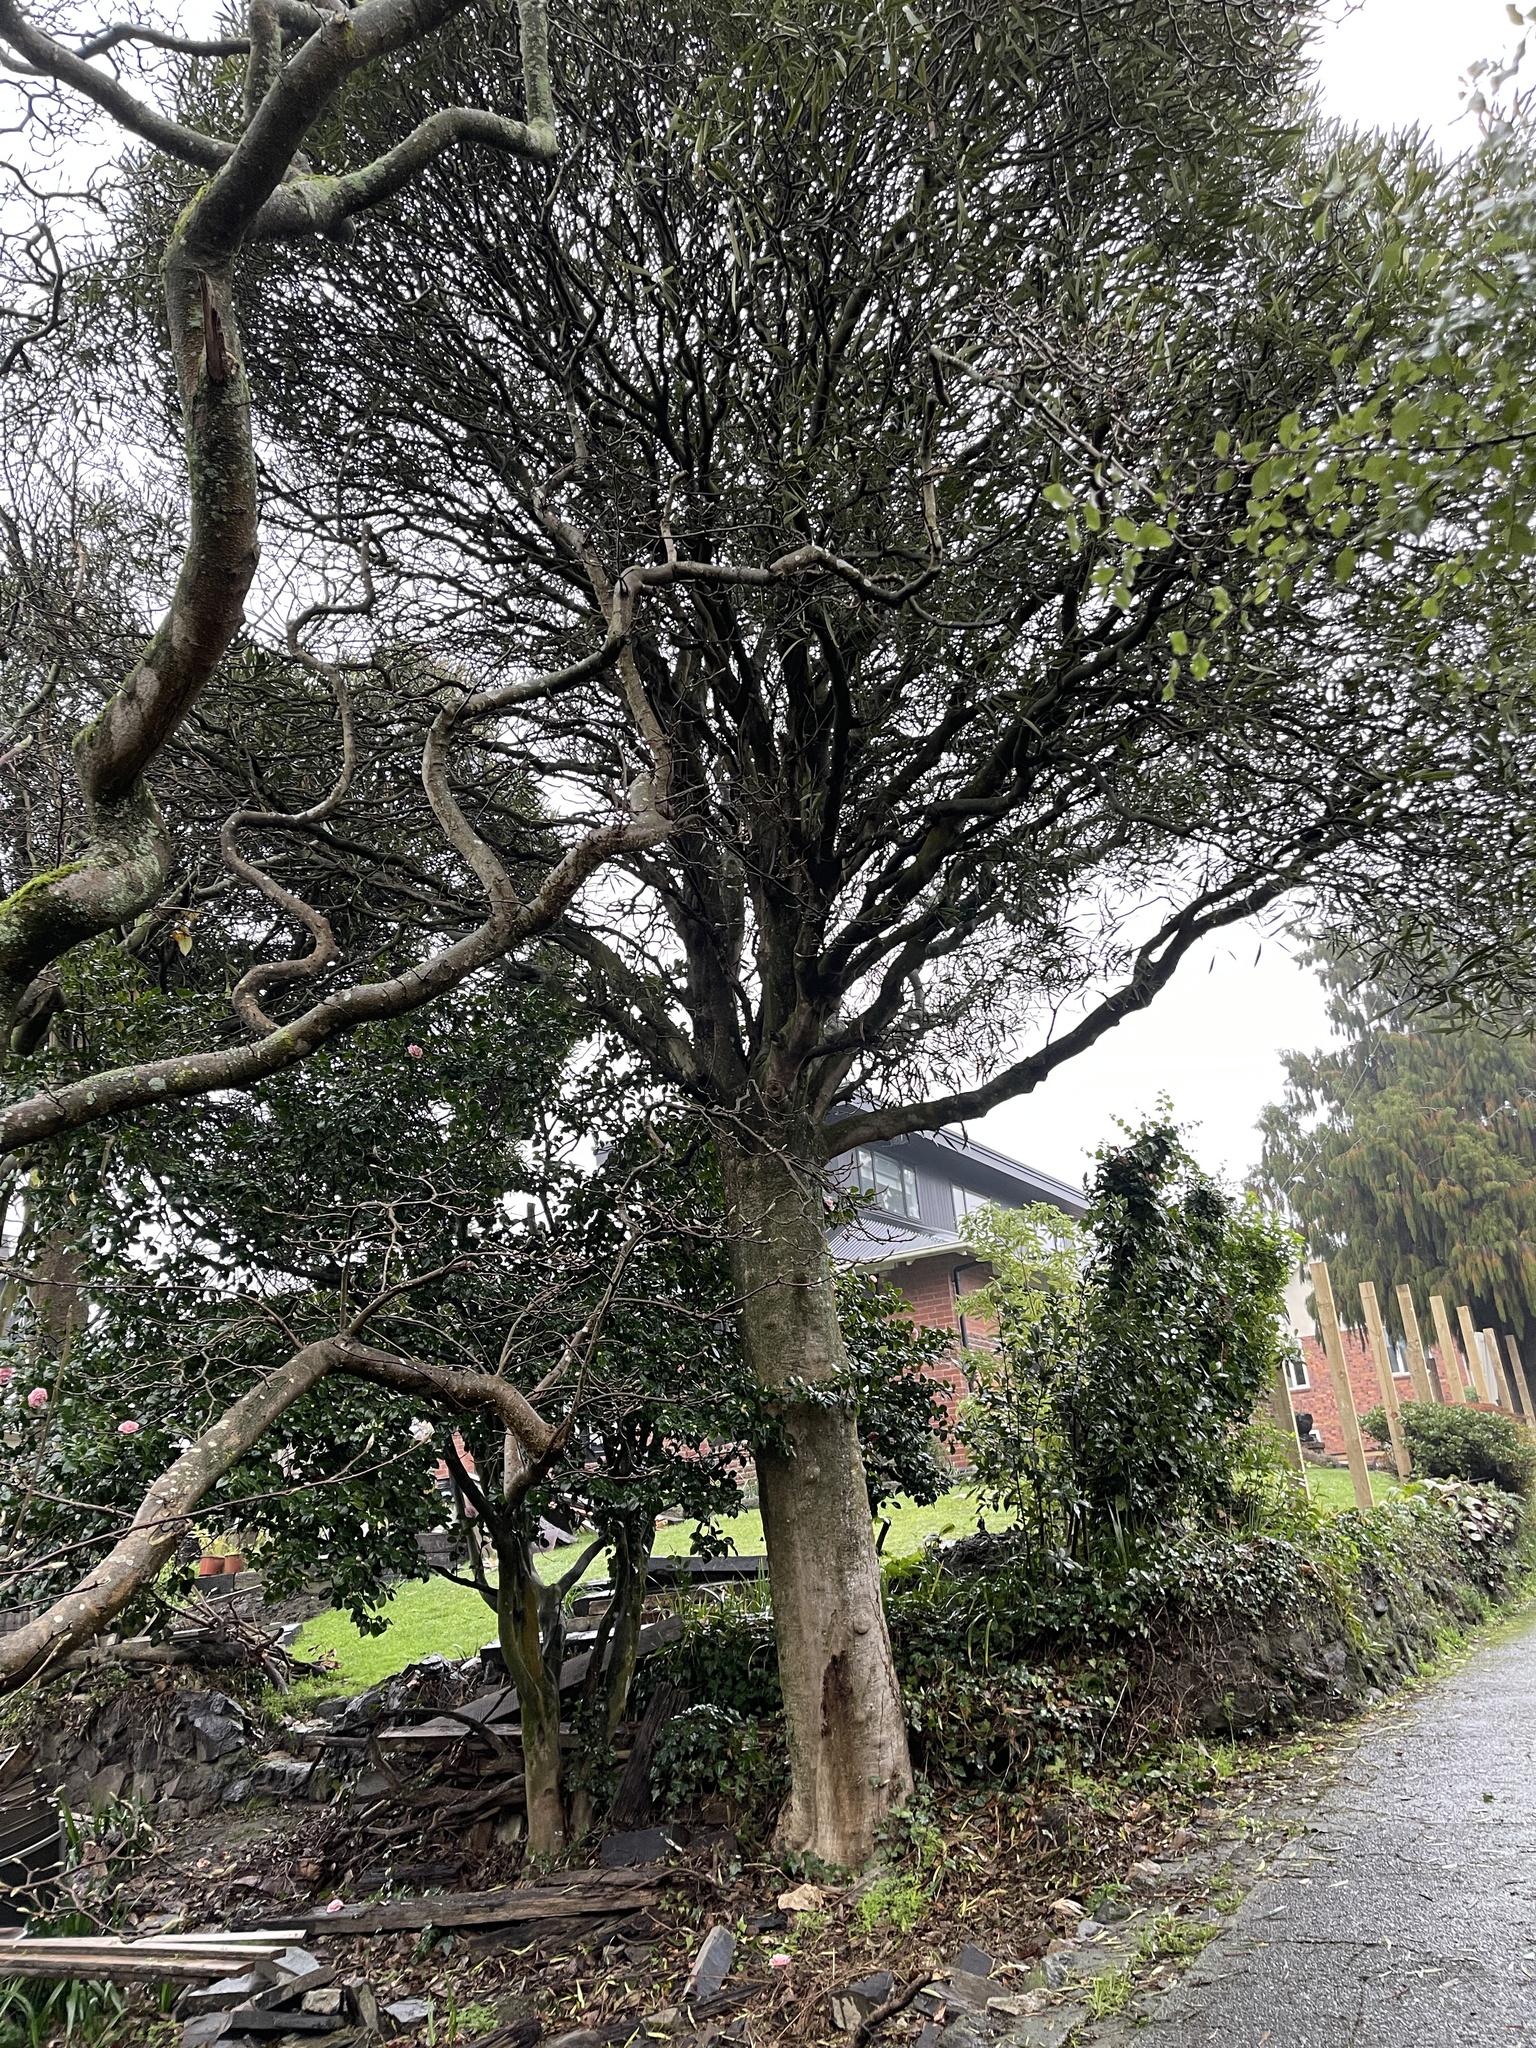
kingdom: Plantae
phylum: Tracheophyta
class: Magnoliopsida
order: Apiales
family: Araliaceae
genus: Pseudopanax
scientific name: Pseudopanax crassifolius
